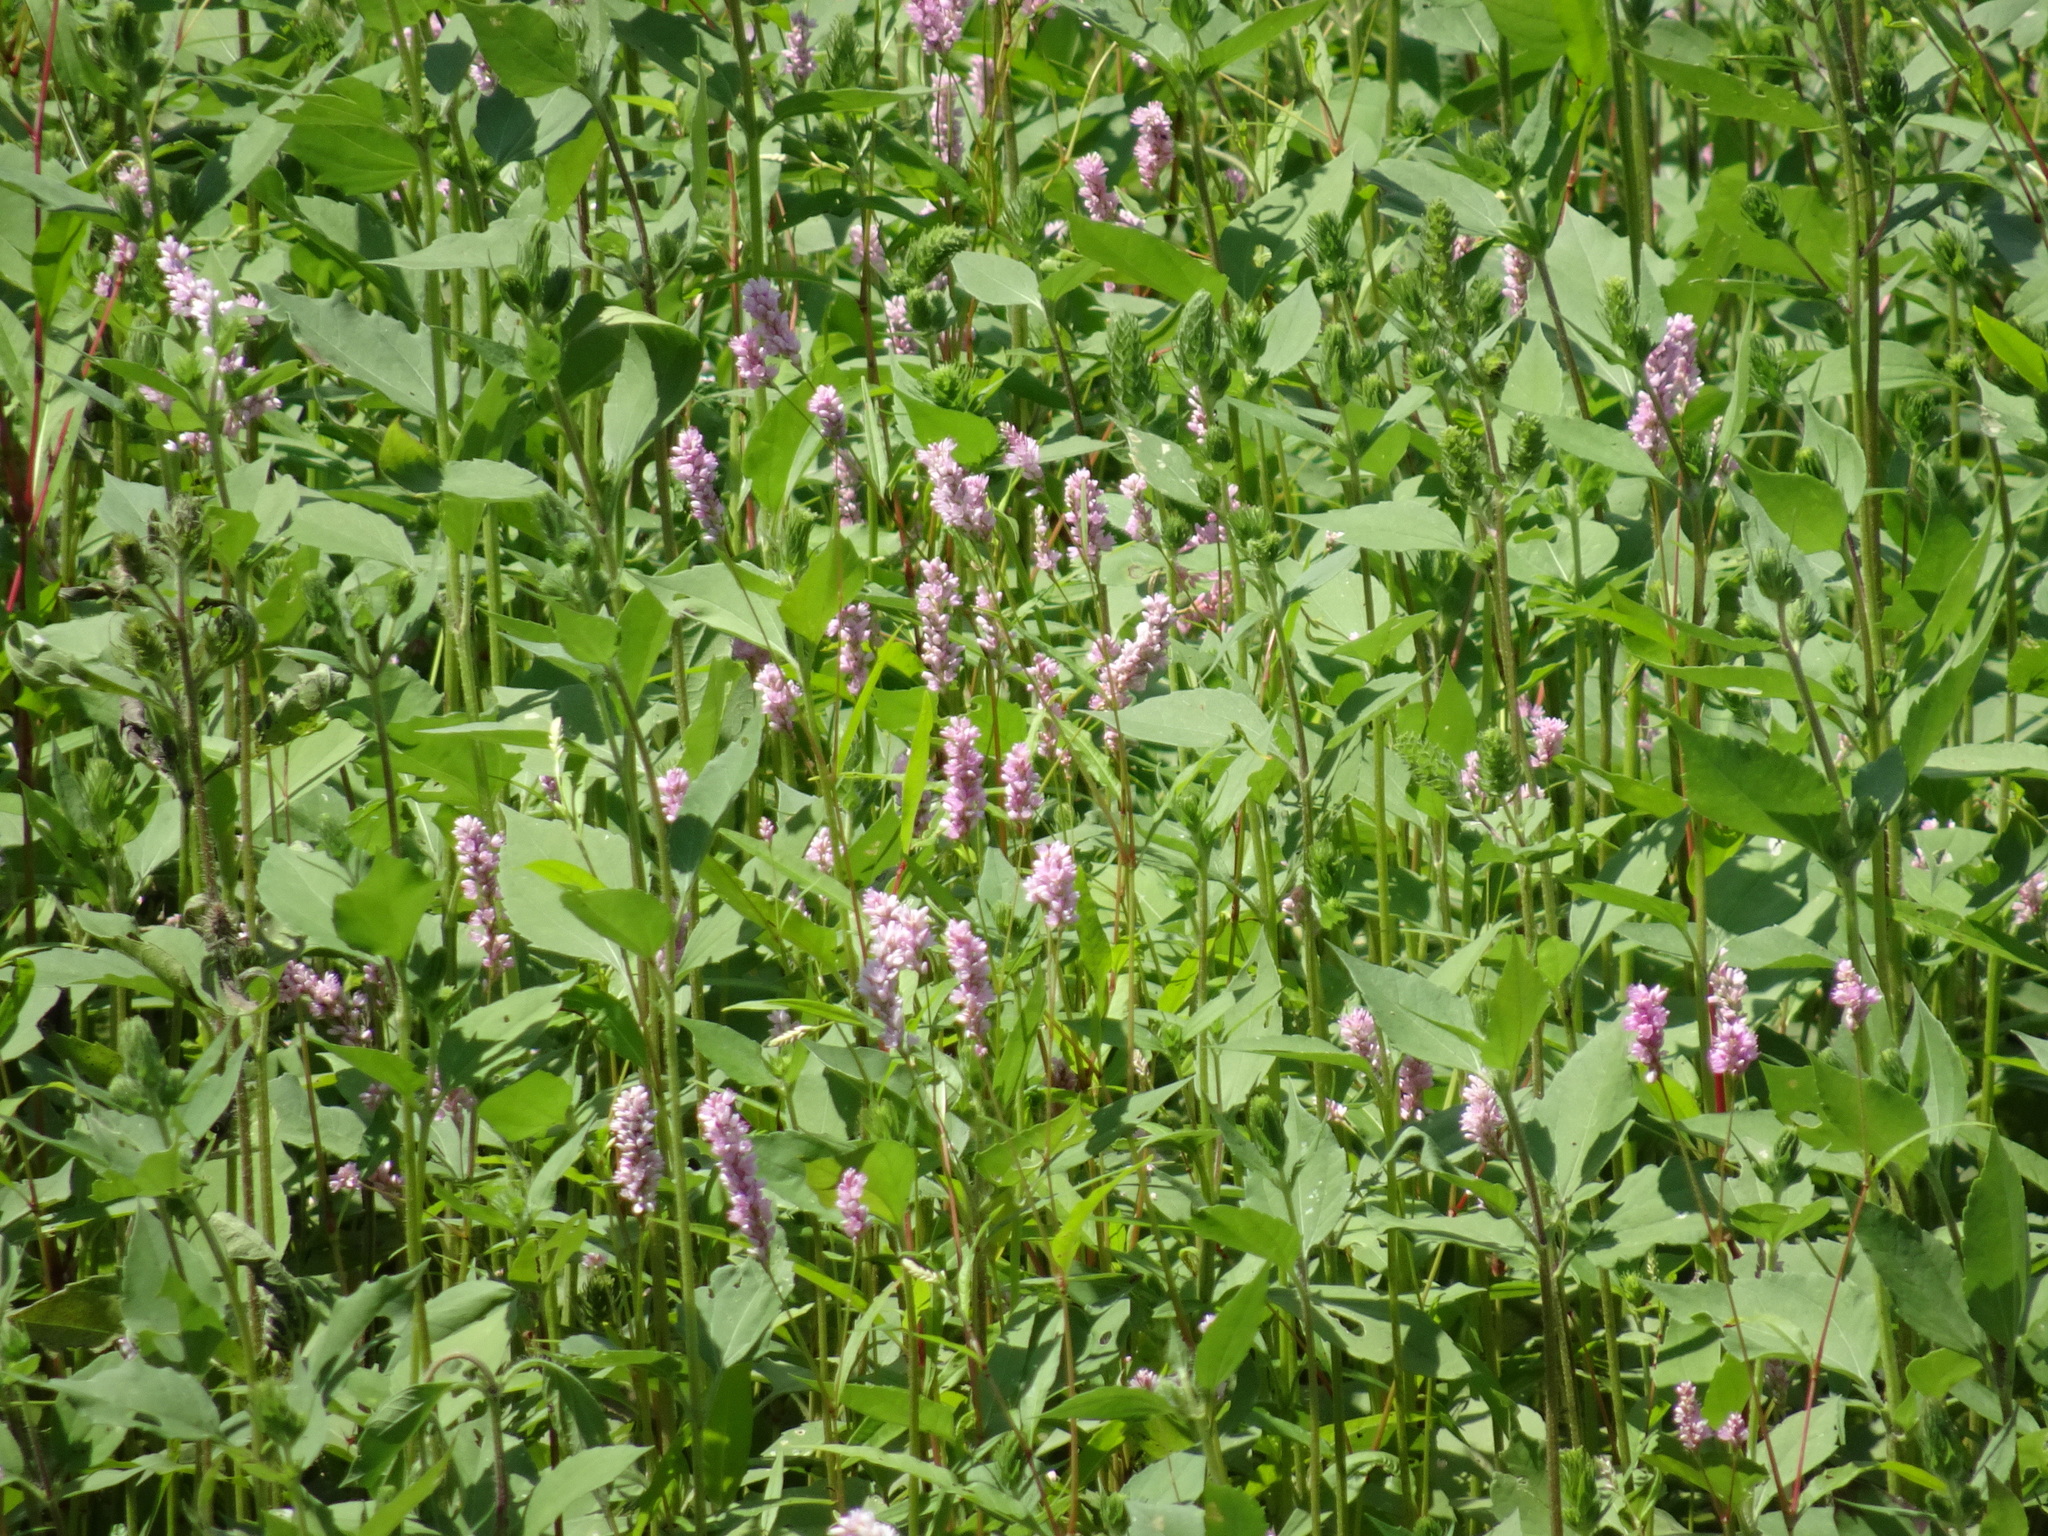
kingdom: Plantae
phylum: Tracheophyta
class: Magnoliopsida
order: Caryophyllales
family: Polygonaceae
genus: Persicaria
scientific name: Persicaria amphibia
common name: Amphibious bistort
